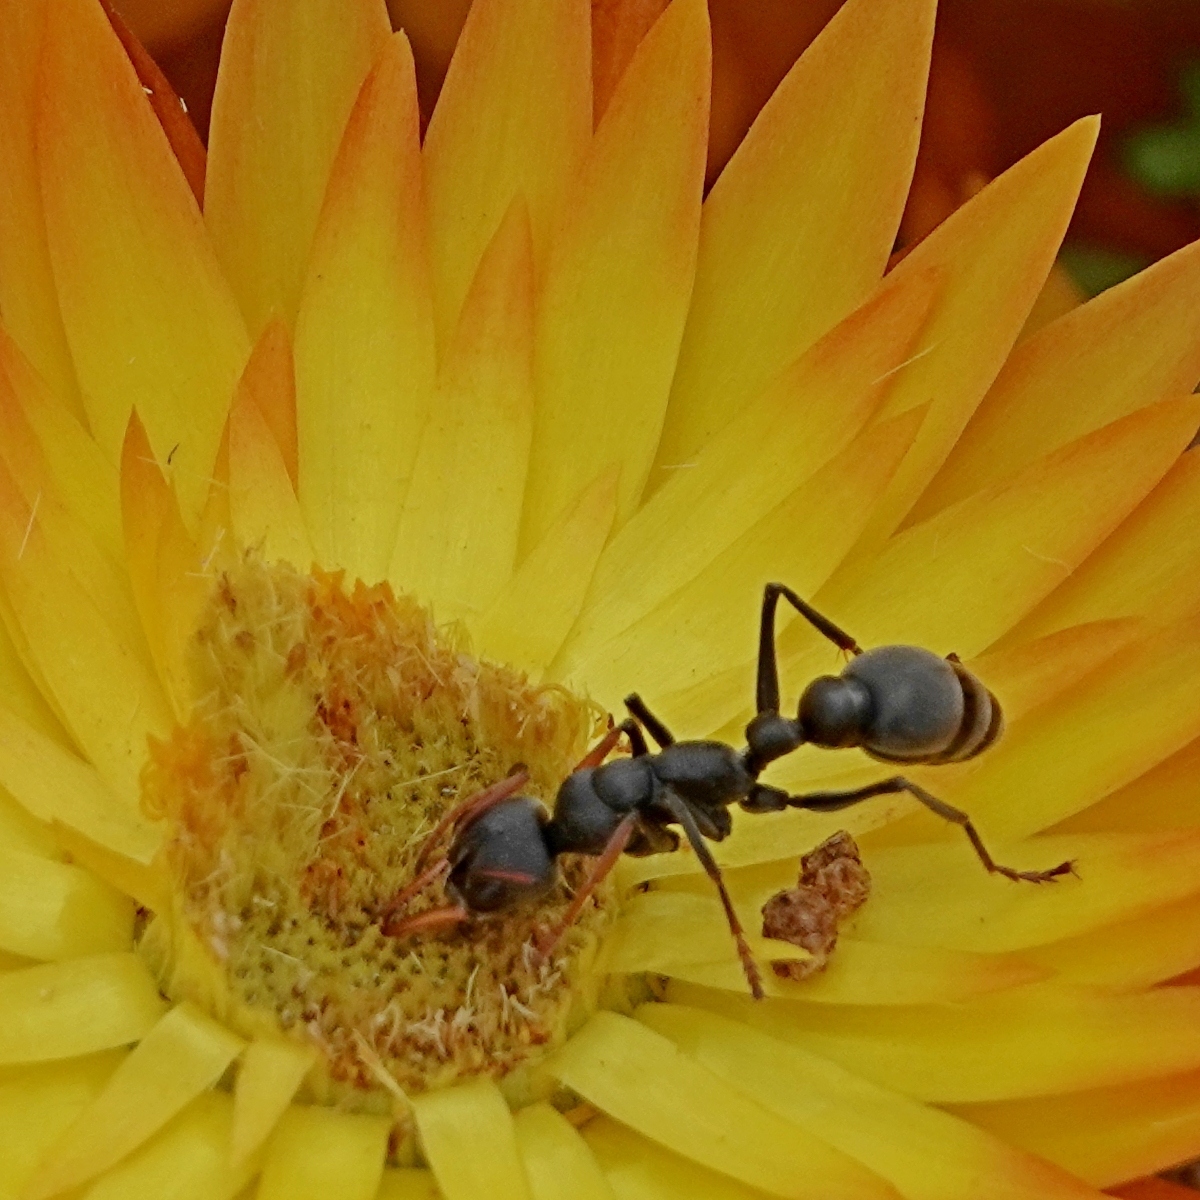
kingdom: Animalia
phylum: Arthropoda
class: Insecta
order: Hymenoptera
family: Formicidae
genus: Myrmecia
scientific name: Myrmecia haskinsorum
